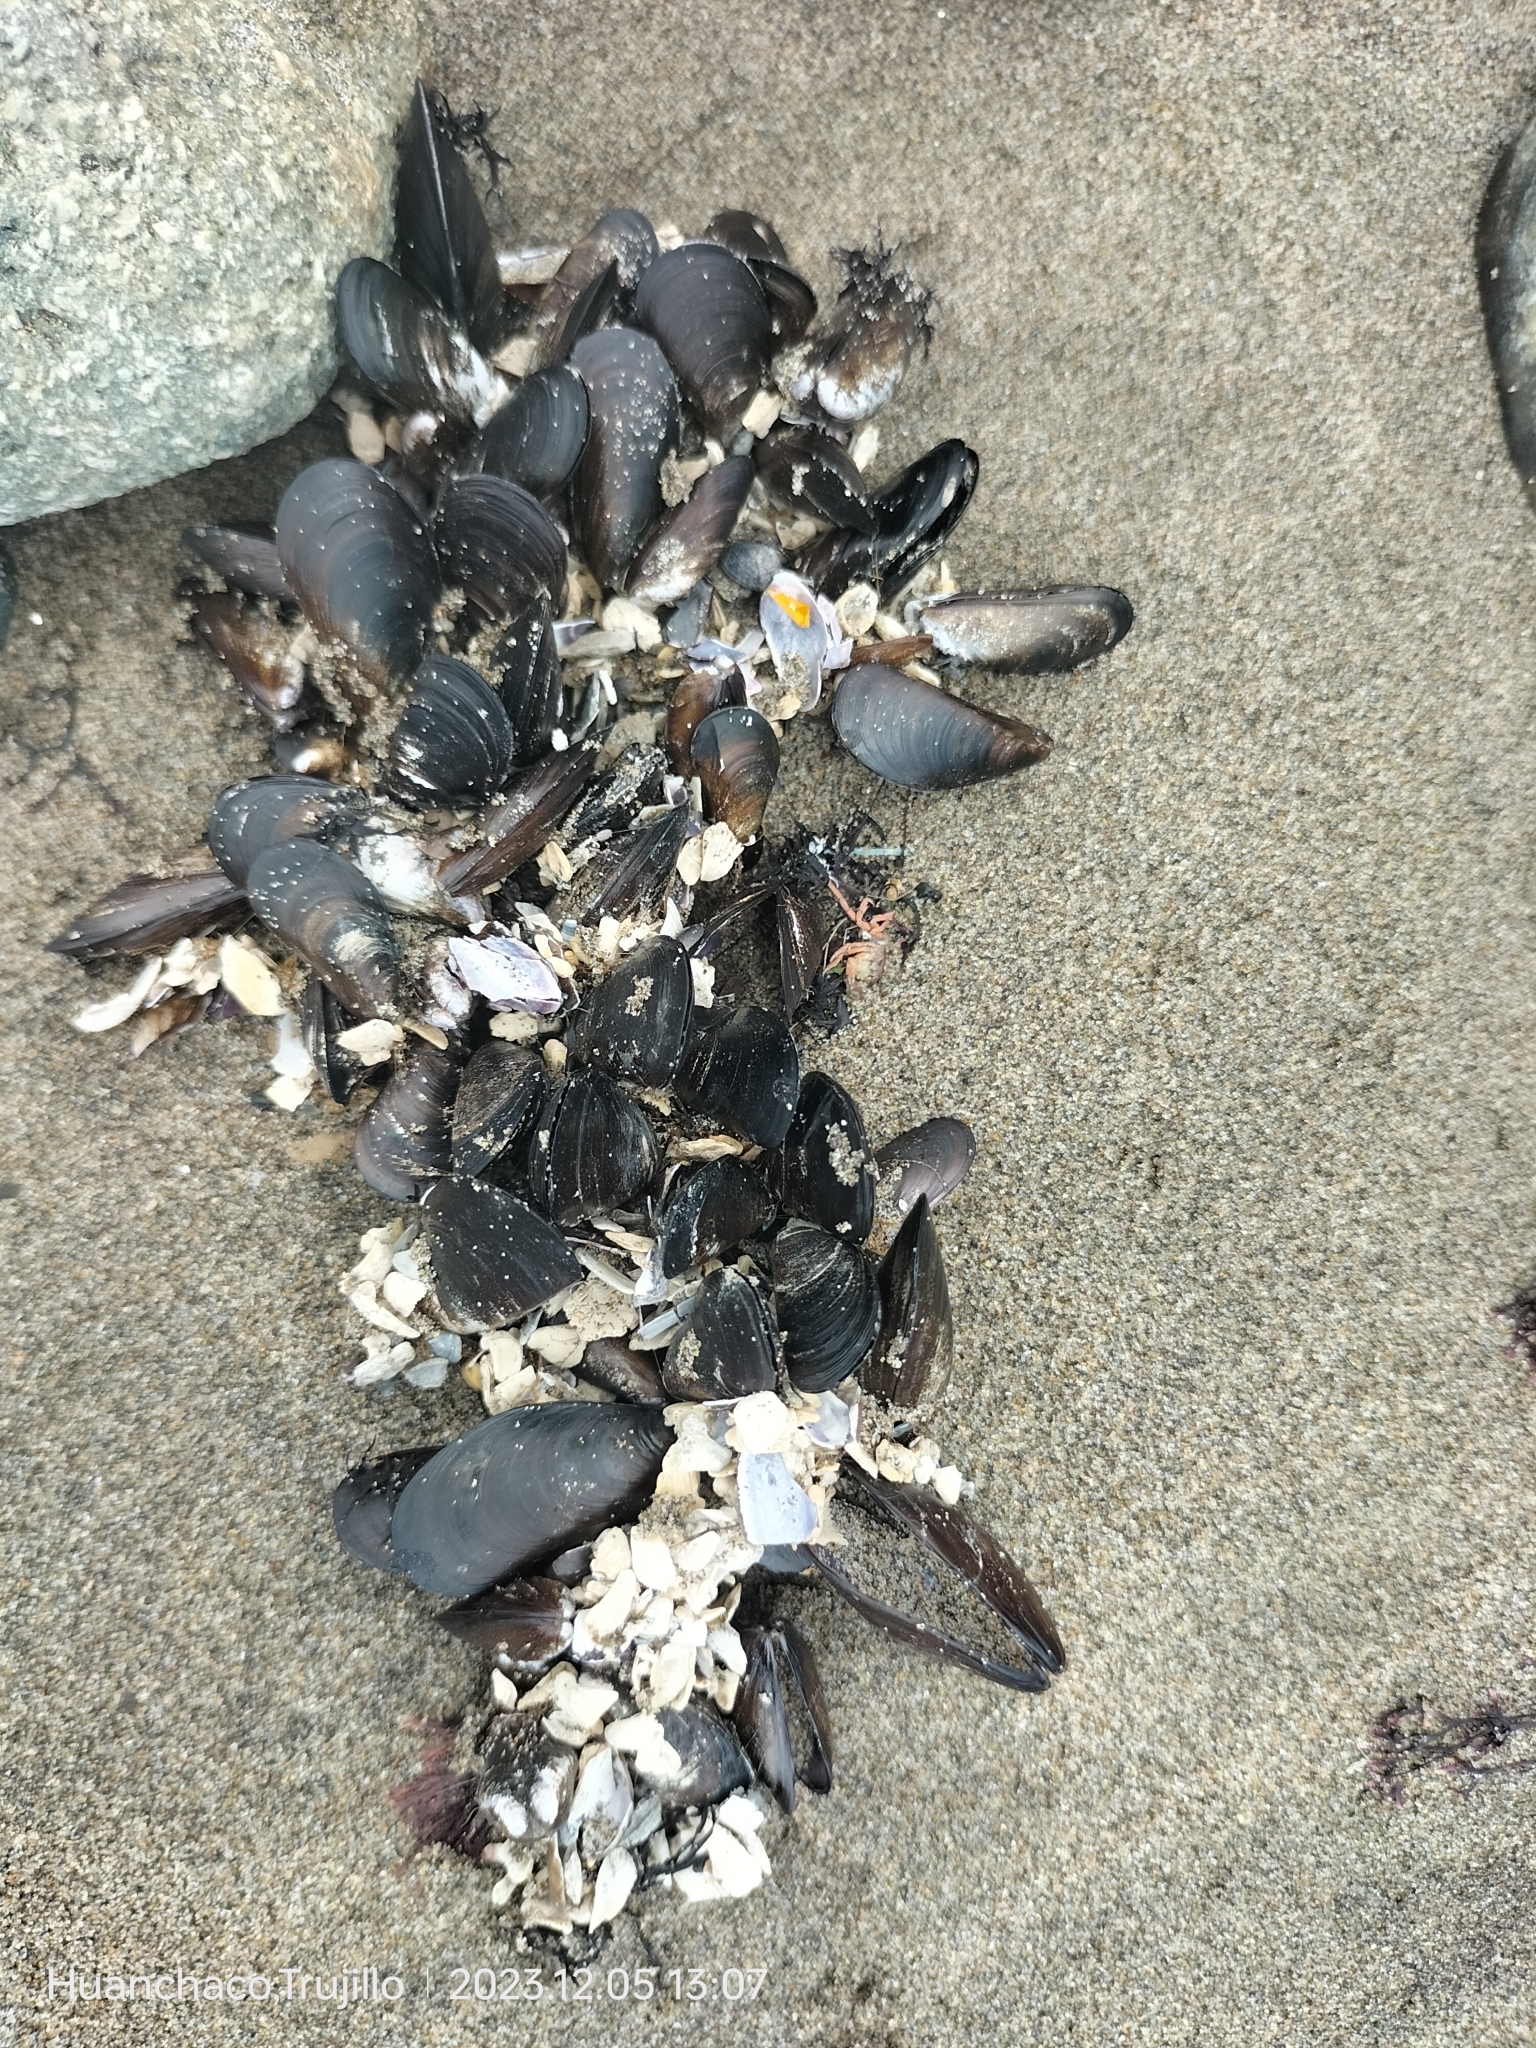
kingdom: Animalia
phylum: Mollusca
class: Bivalvia
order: Mytilida
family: Mytilidae
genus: Semimytilus
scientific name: Semimytilus patagonicus
